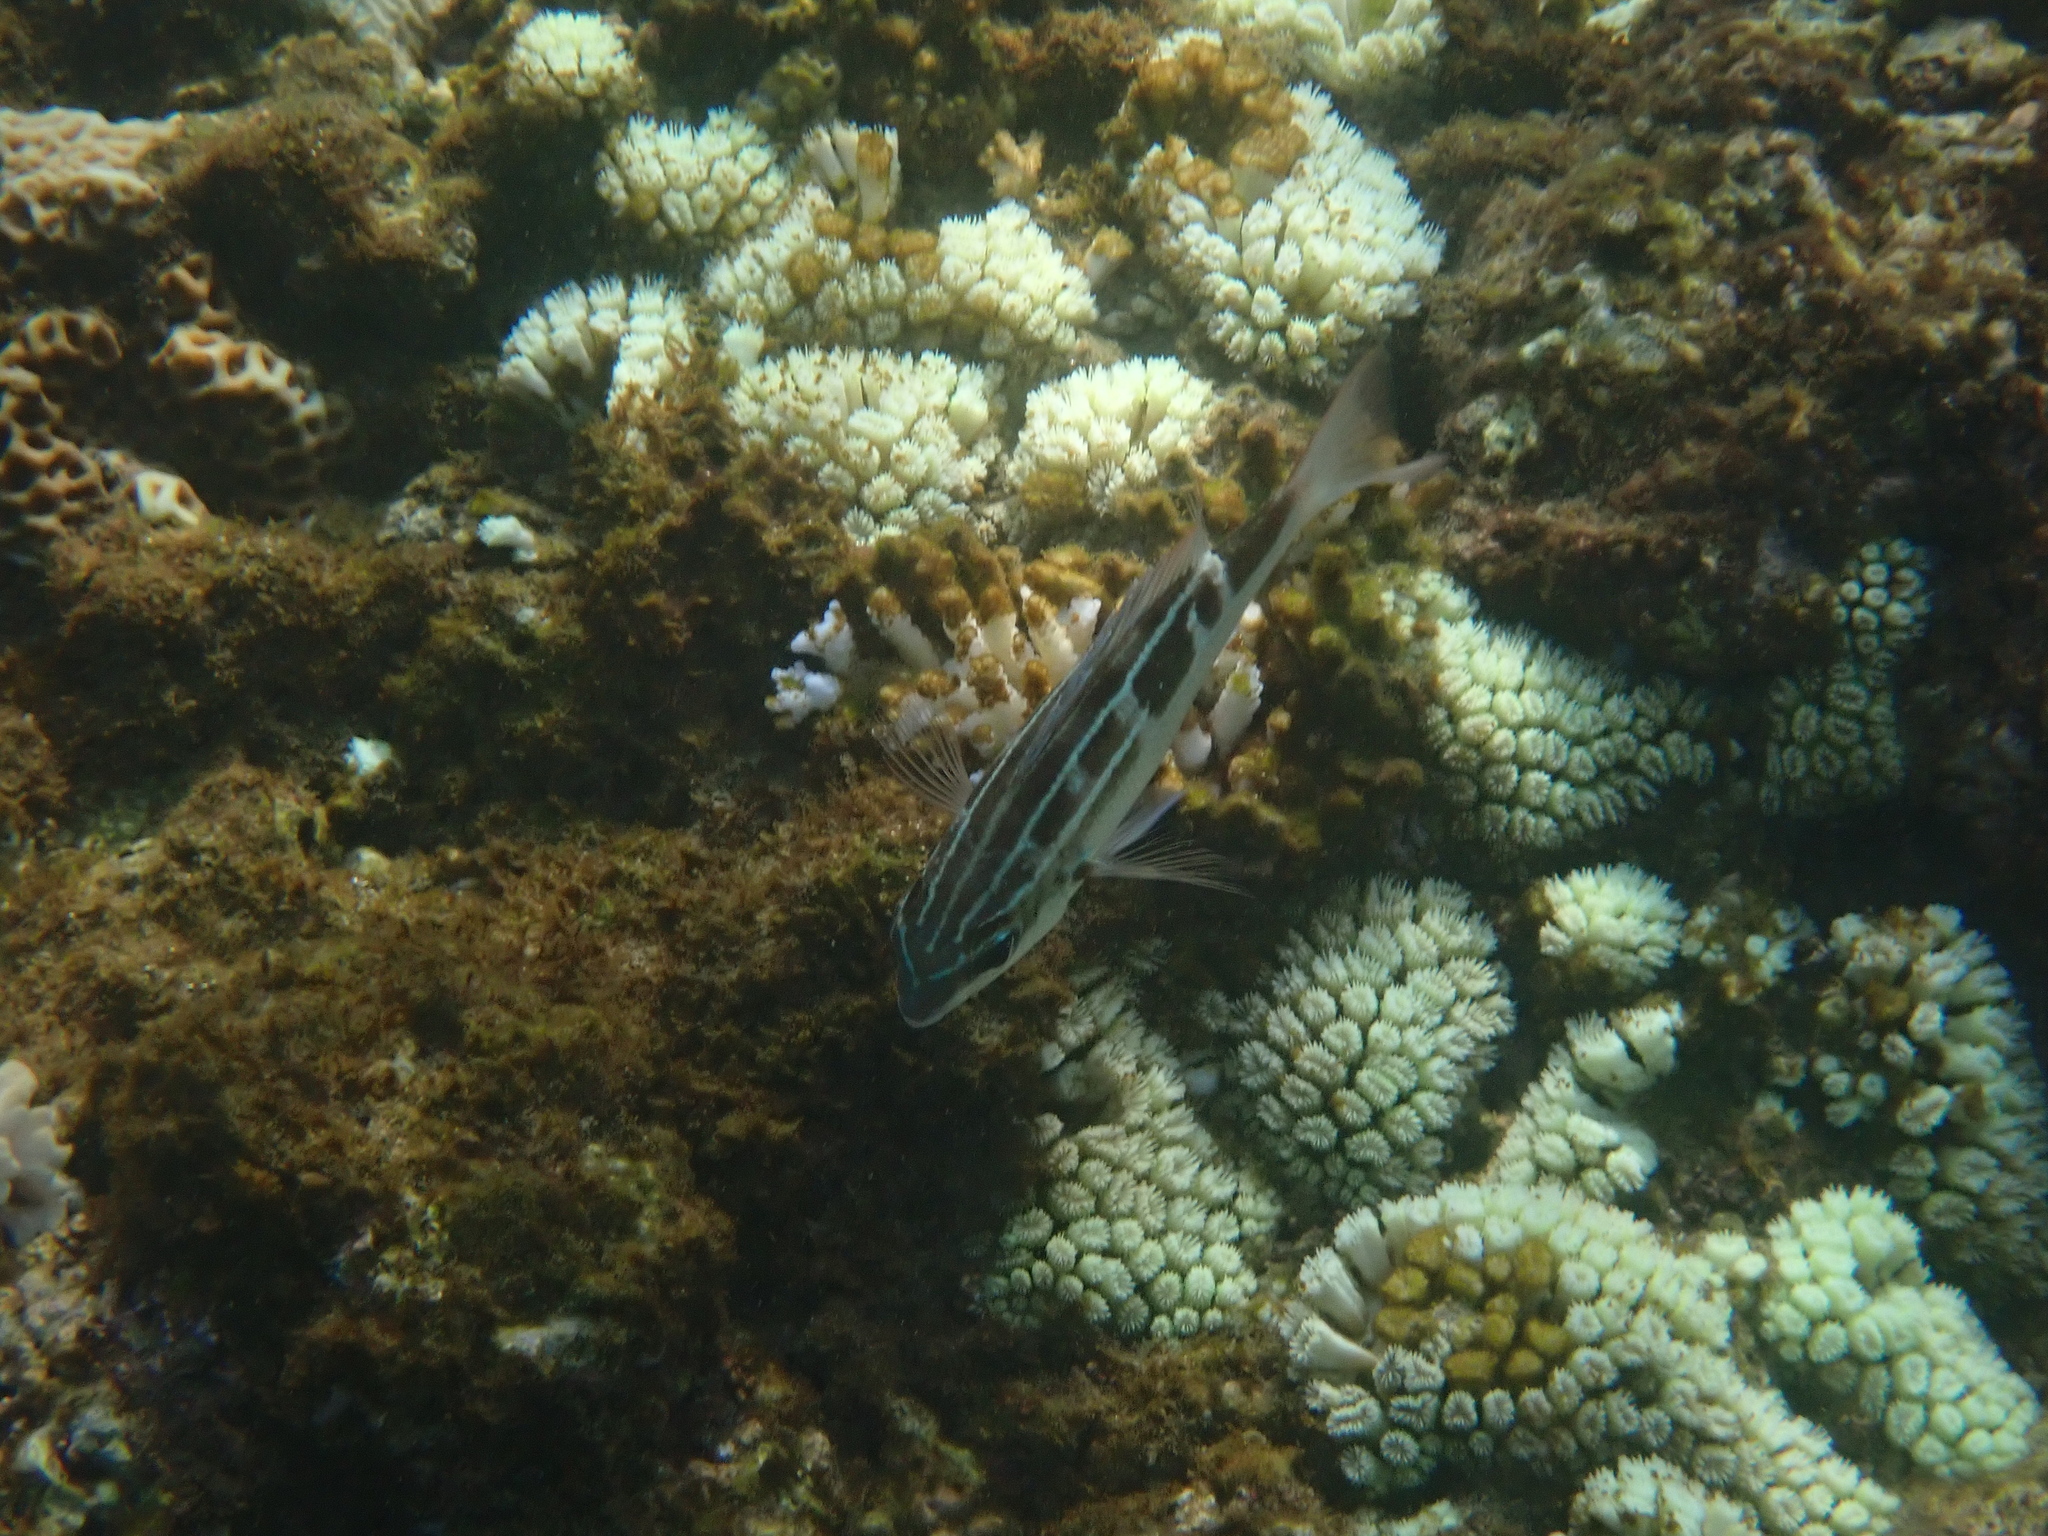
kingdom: Animalia
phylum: Chordata
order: Perciformes
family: Nemipteridae
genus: Scolopsis
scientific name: Scolopsis lineata
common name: Striped monocle bream
